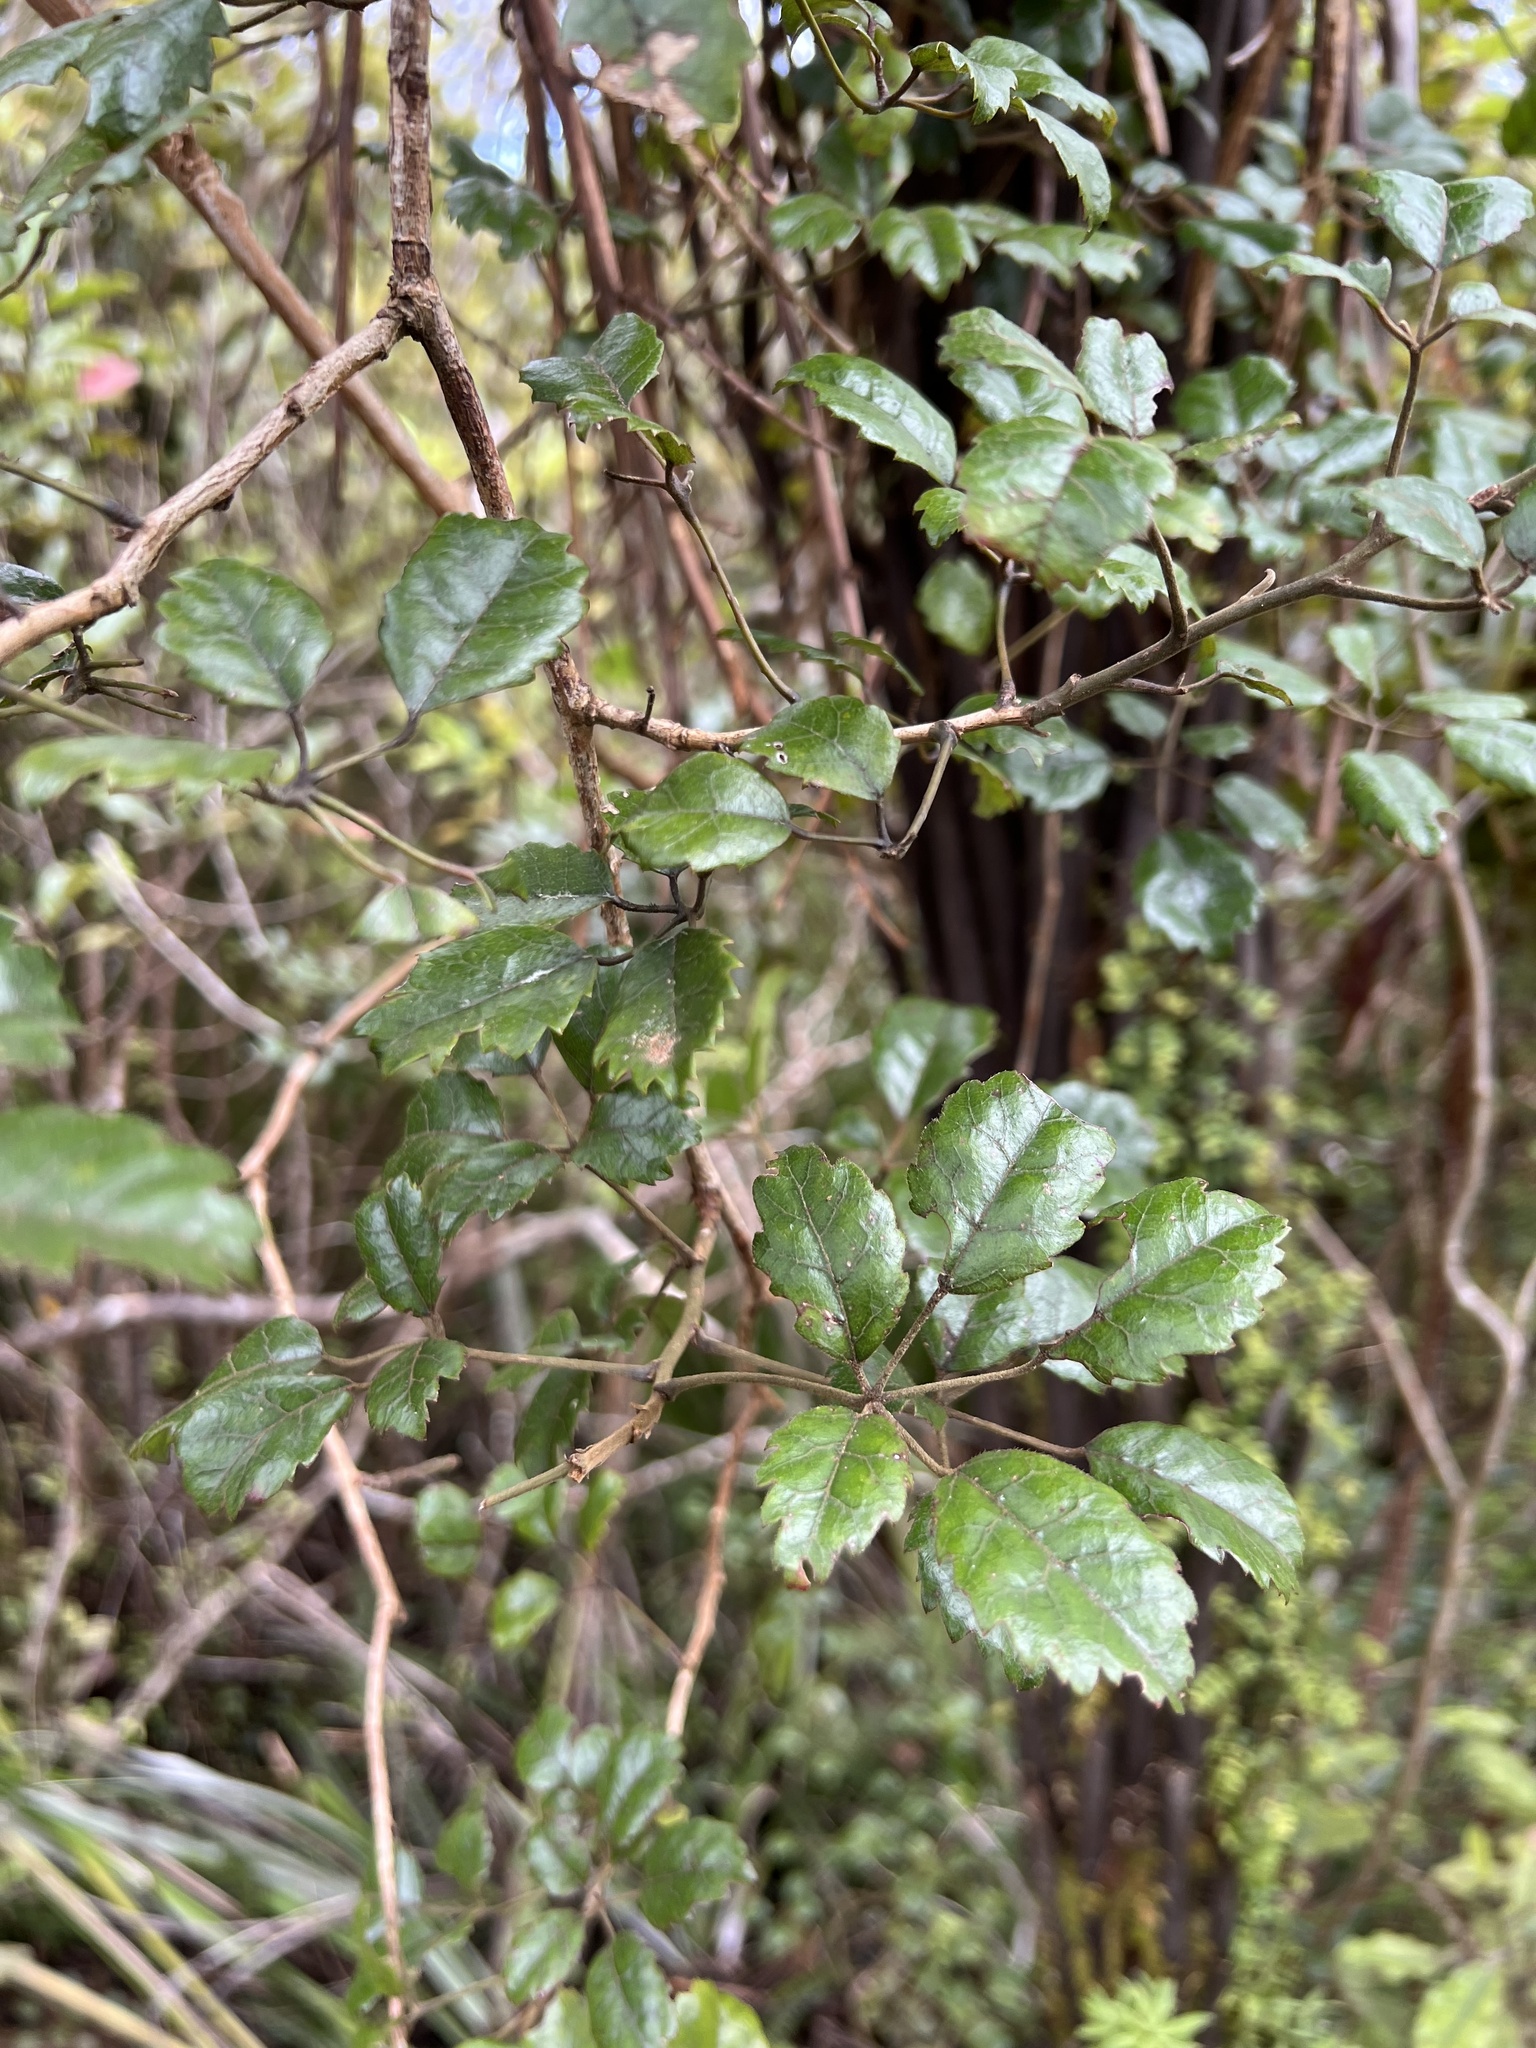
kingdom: Plantae
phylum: Tracheophyta
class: Magnoliopsida
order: Rosales
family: Rosaceae
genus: Rubus
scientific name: Rubus australis
